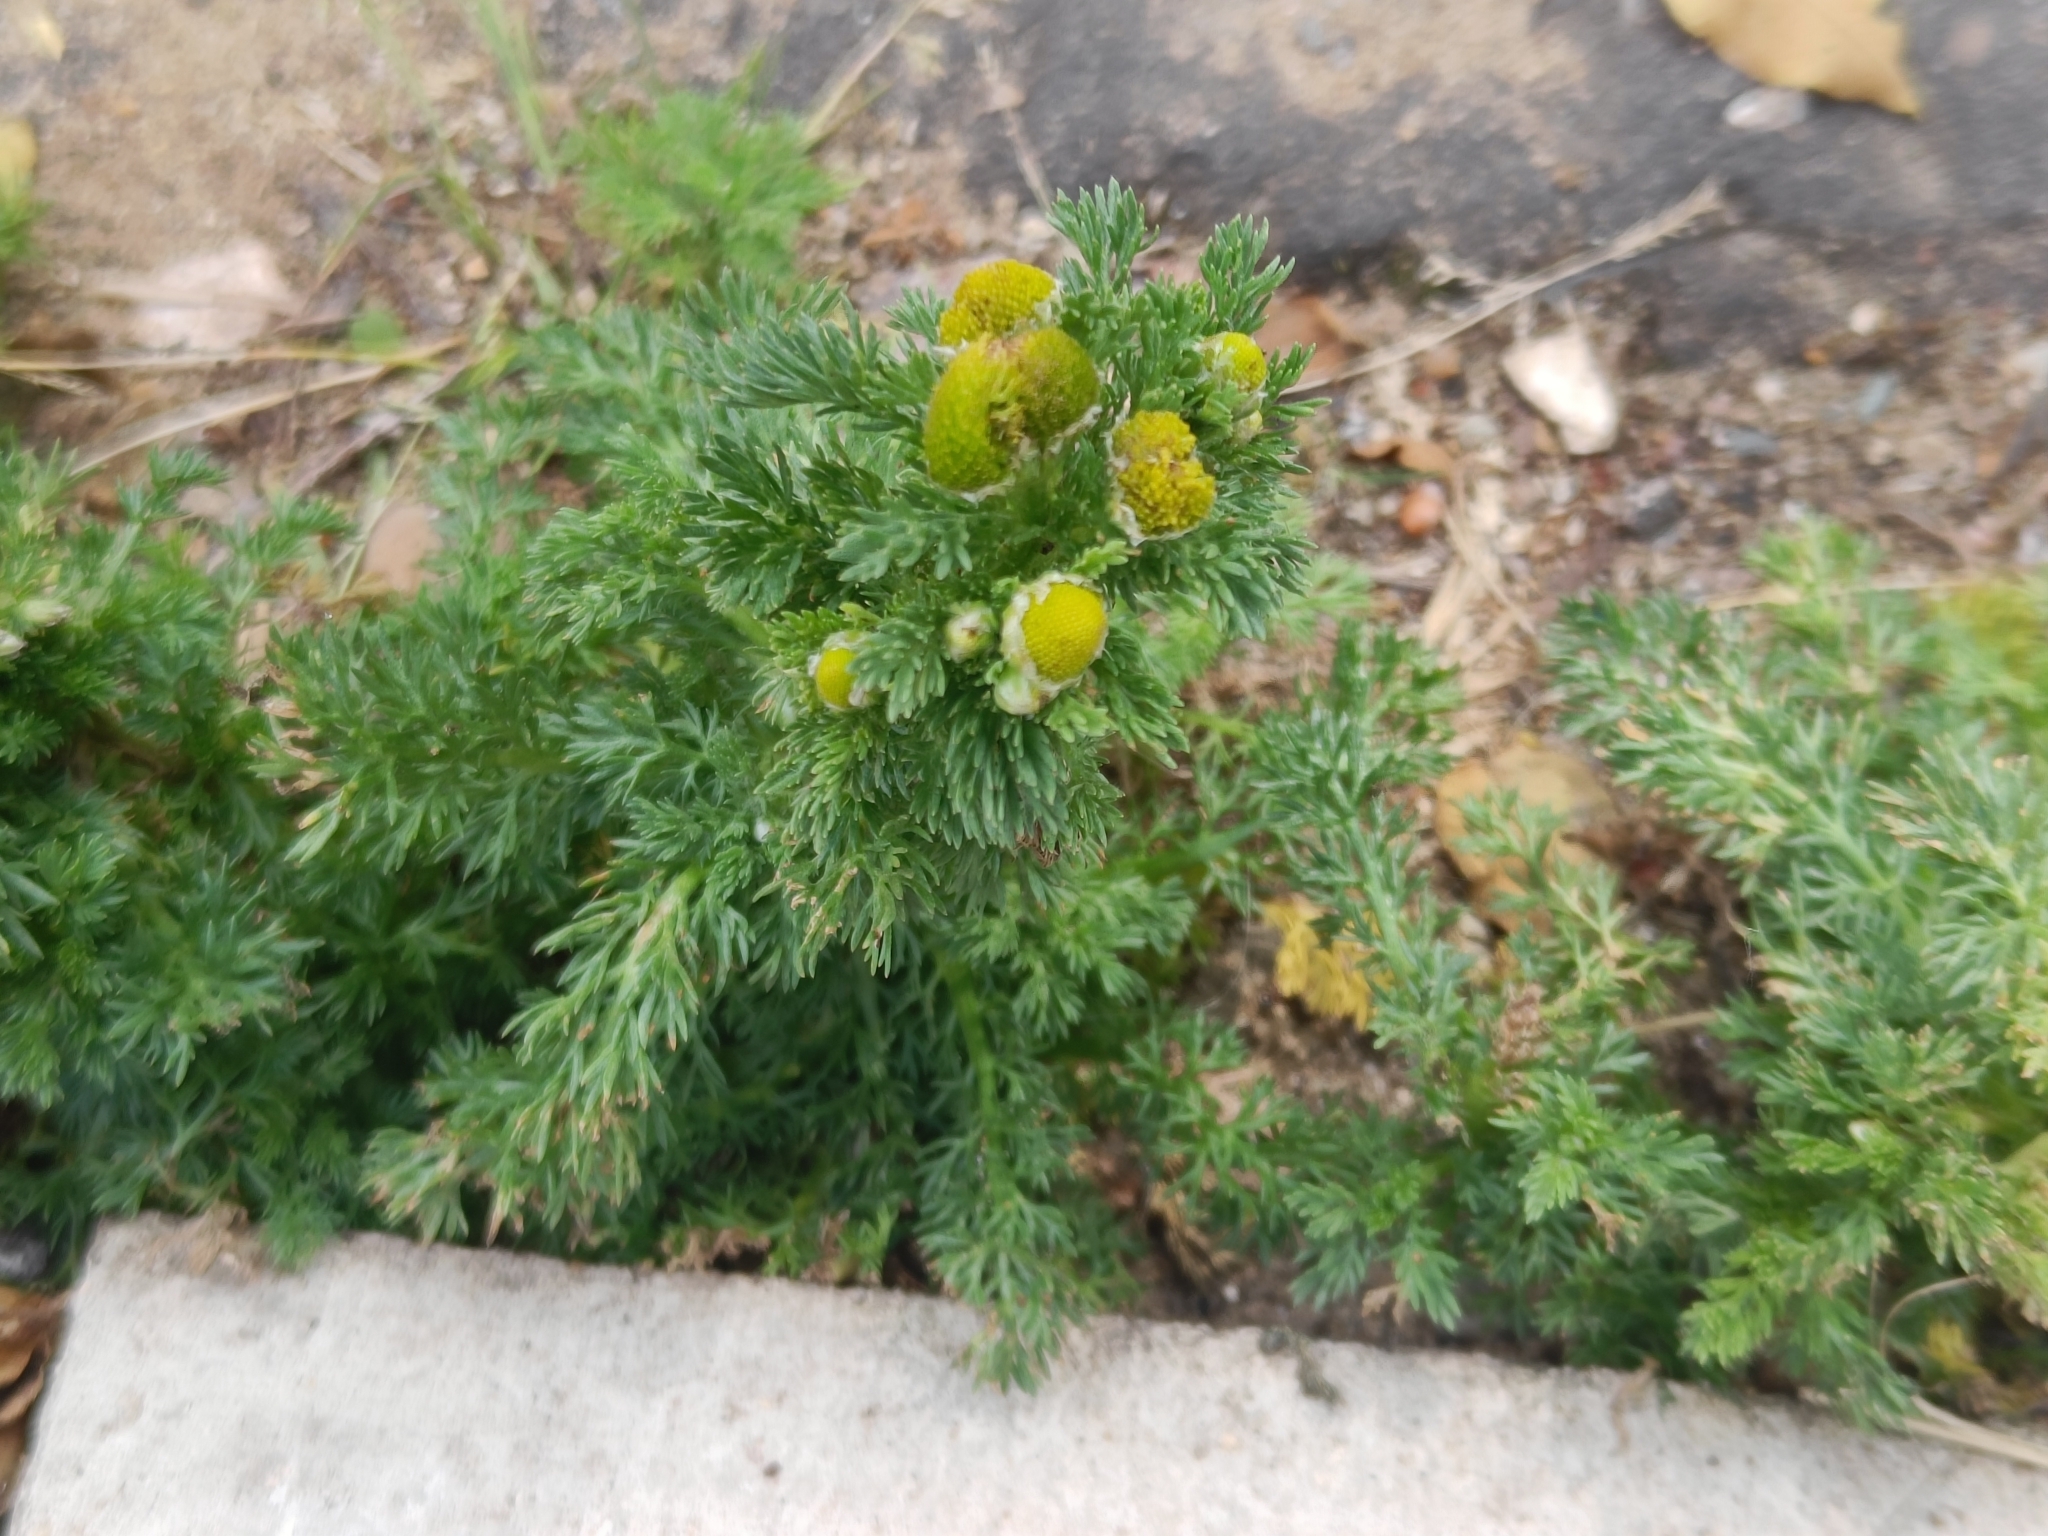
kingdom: Plantae
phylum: Tracheophyta
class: Magnoliopsida
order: Asterales
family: Asteraceae
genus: Matricaria
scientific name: Matricaria discoidea
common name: Disc mayweed
